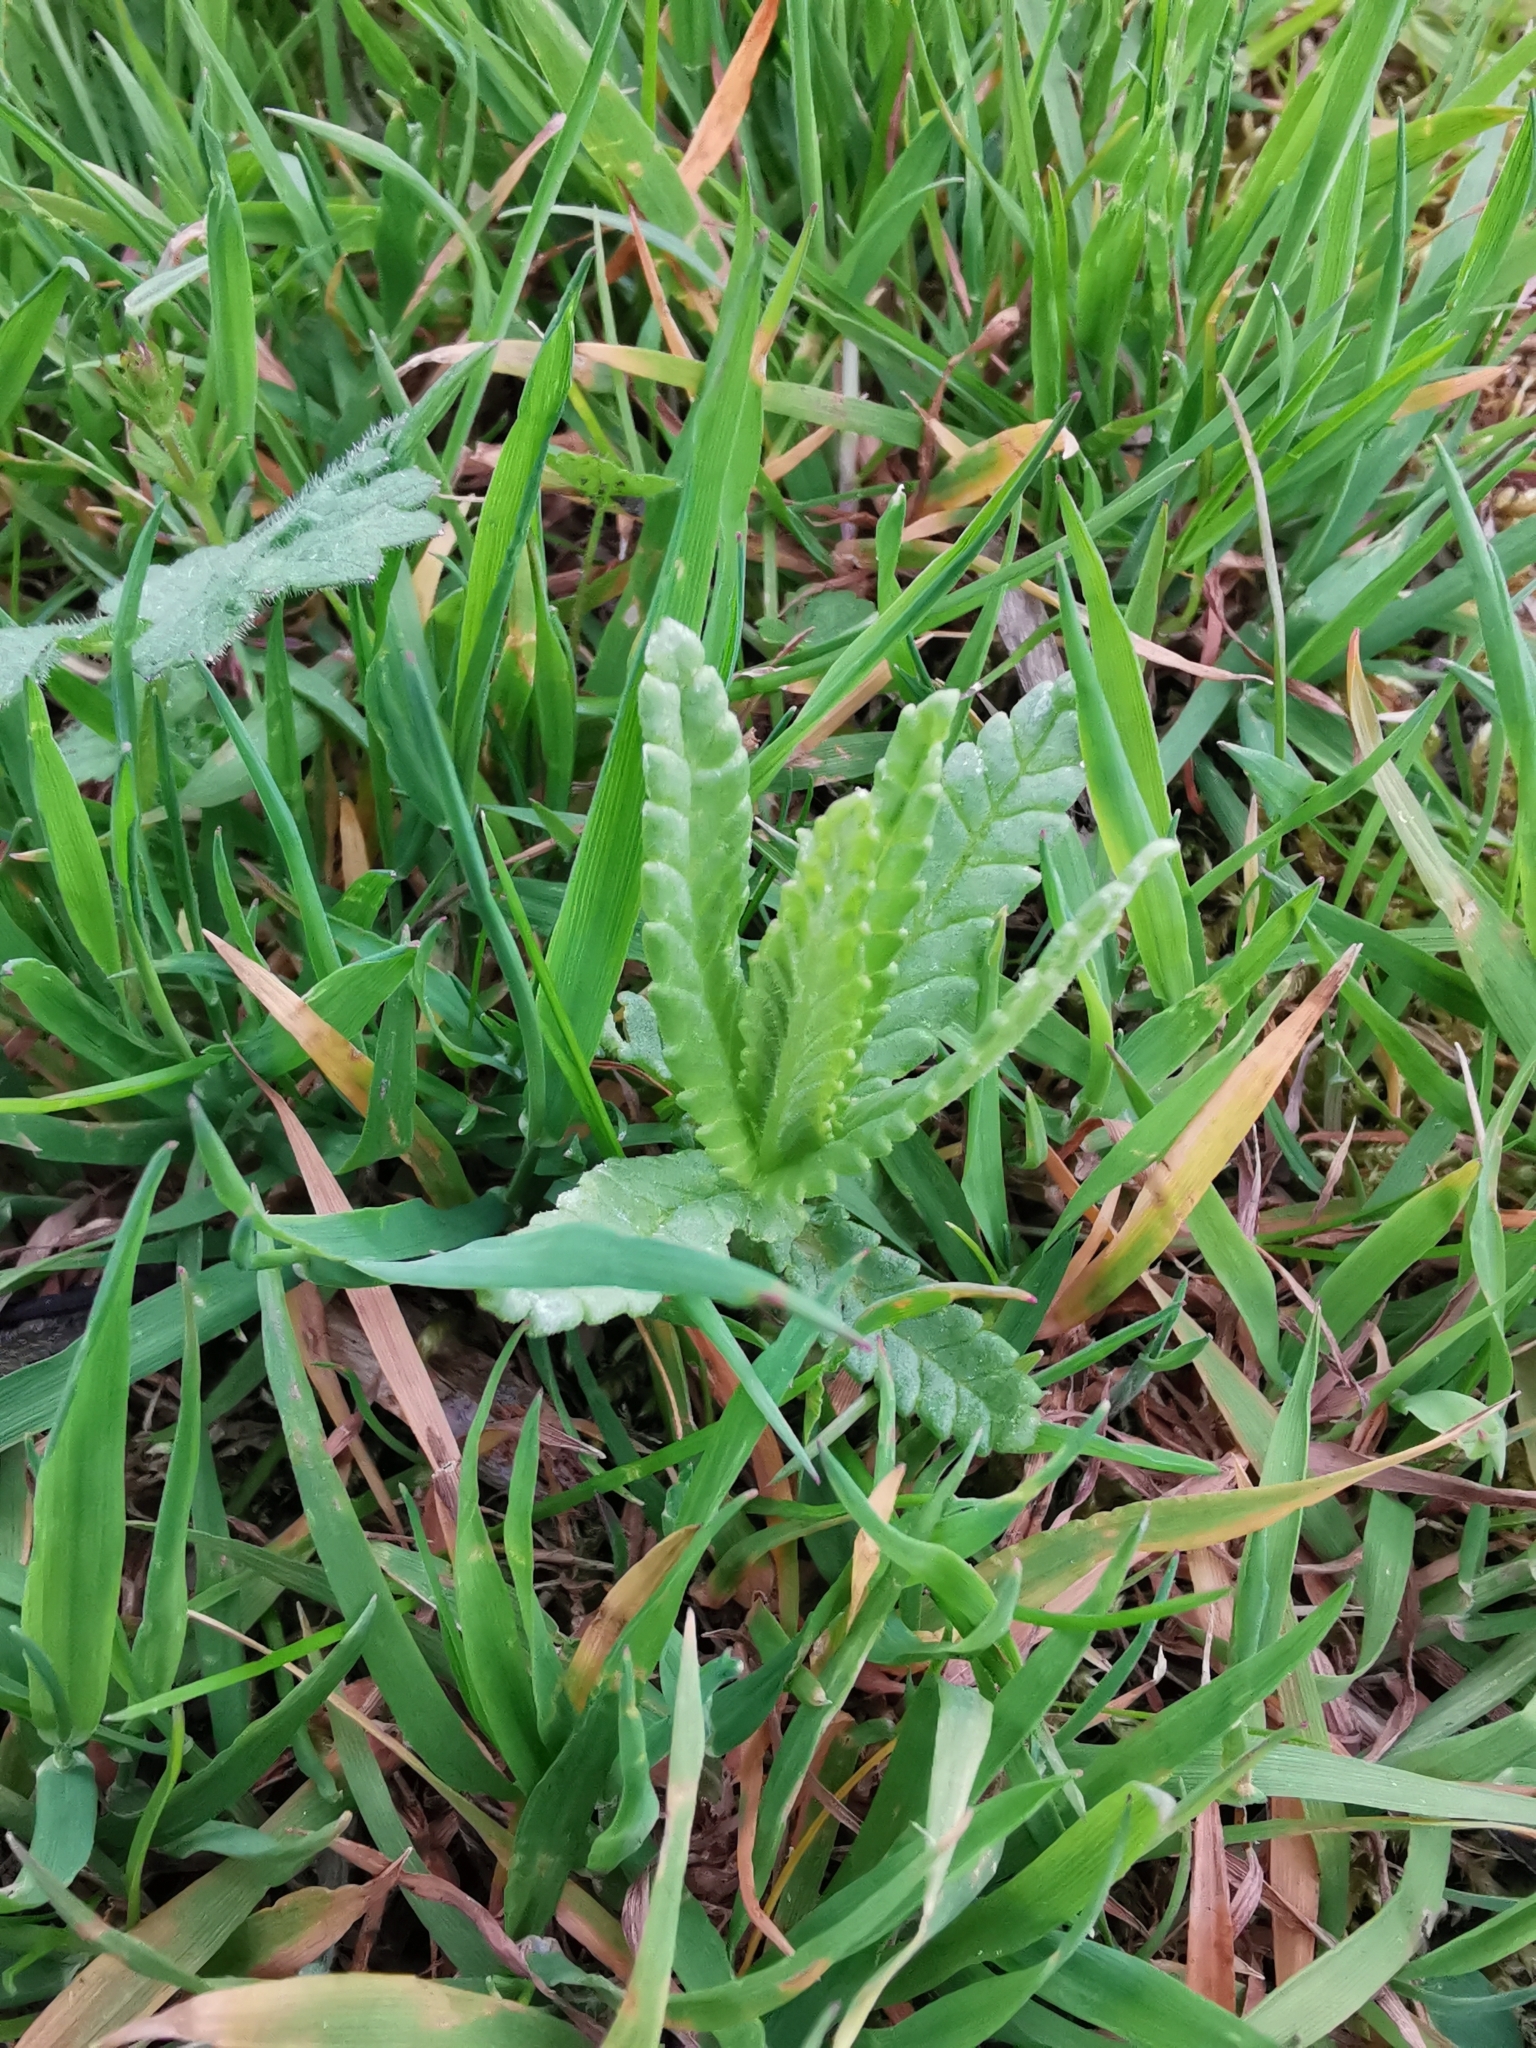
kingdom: Plantae
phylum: Tracheophyta
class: Magnoliopsida
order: Lamiales
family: Orobanchaceae
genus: Rhinanthus
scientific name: Rhinanthus minor
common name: Yellow-rattle
